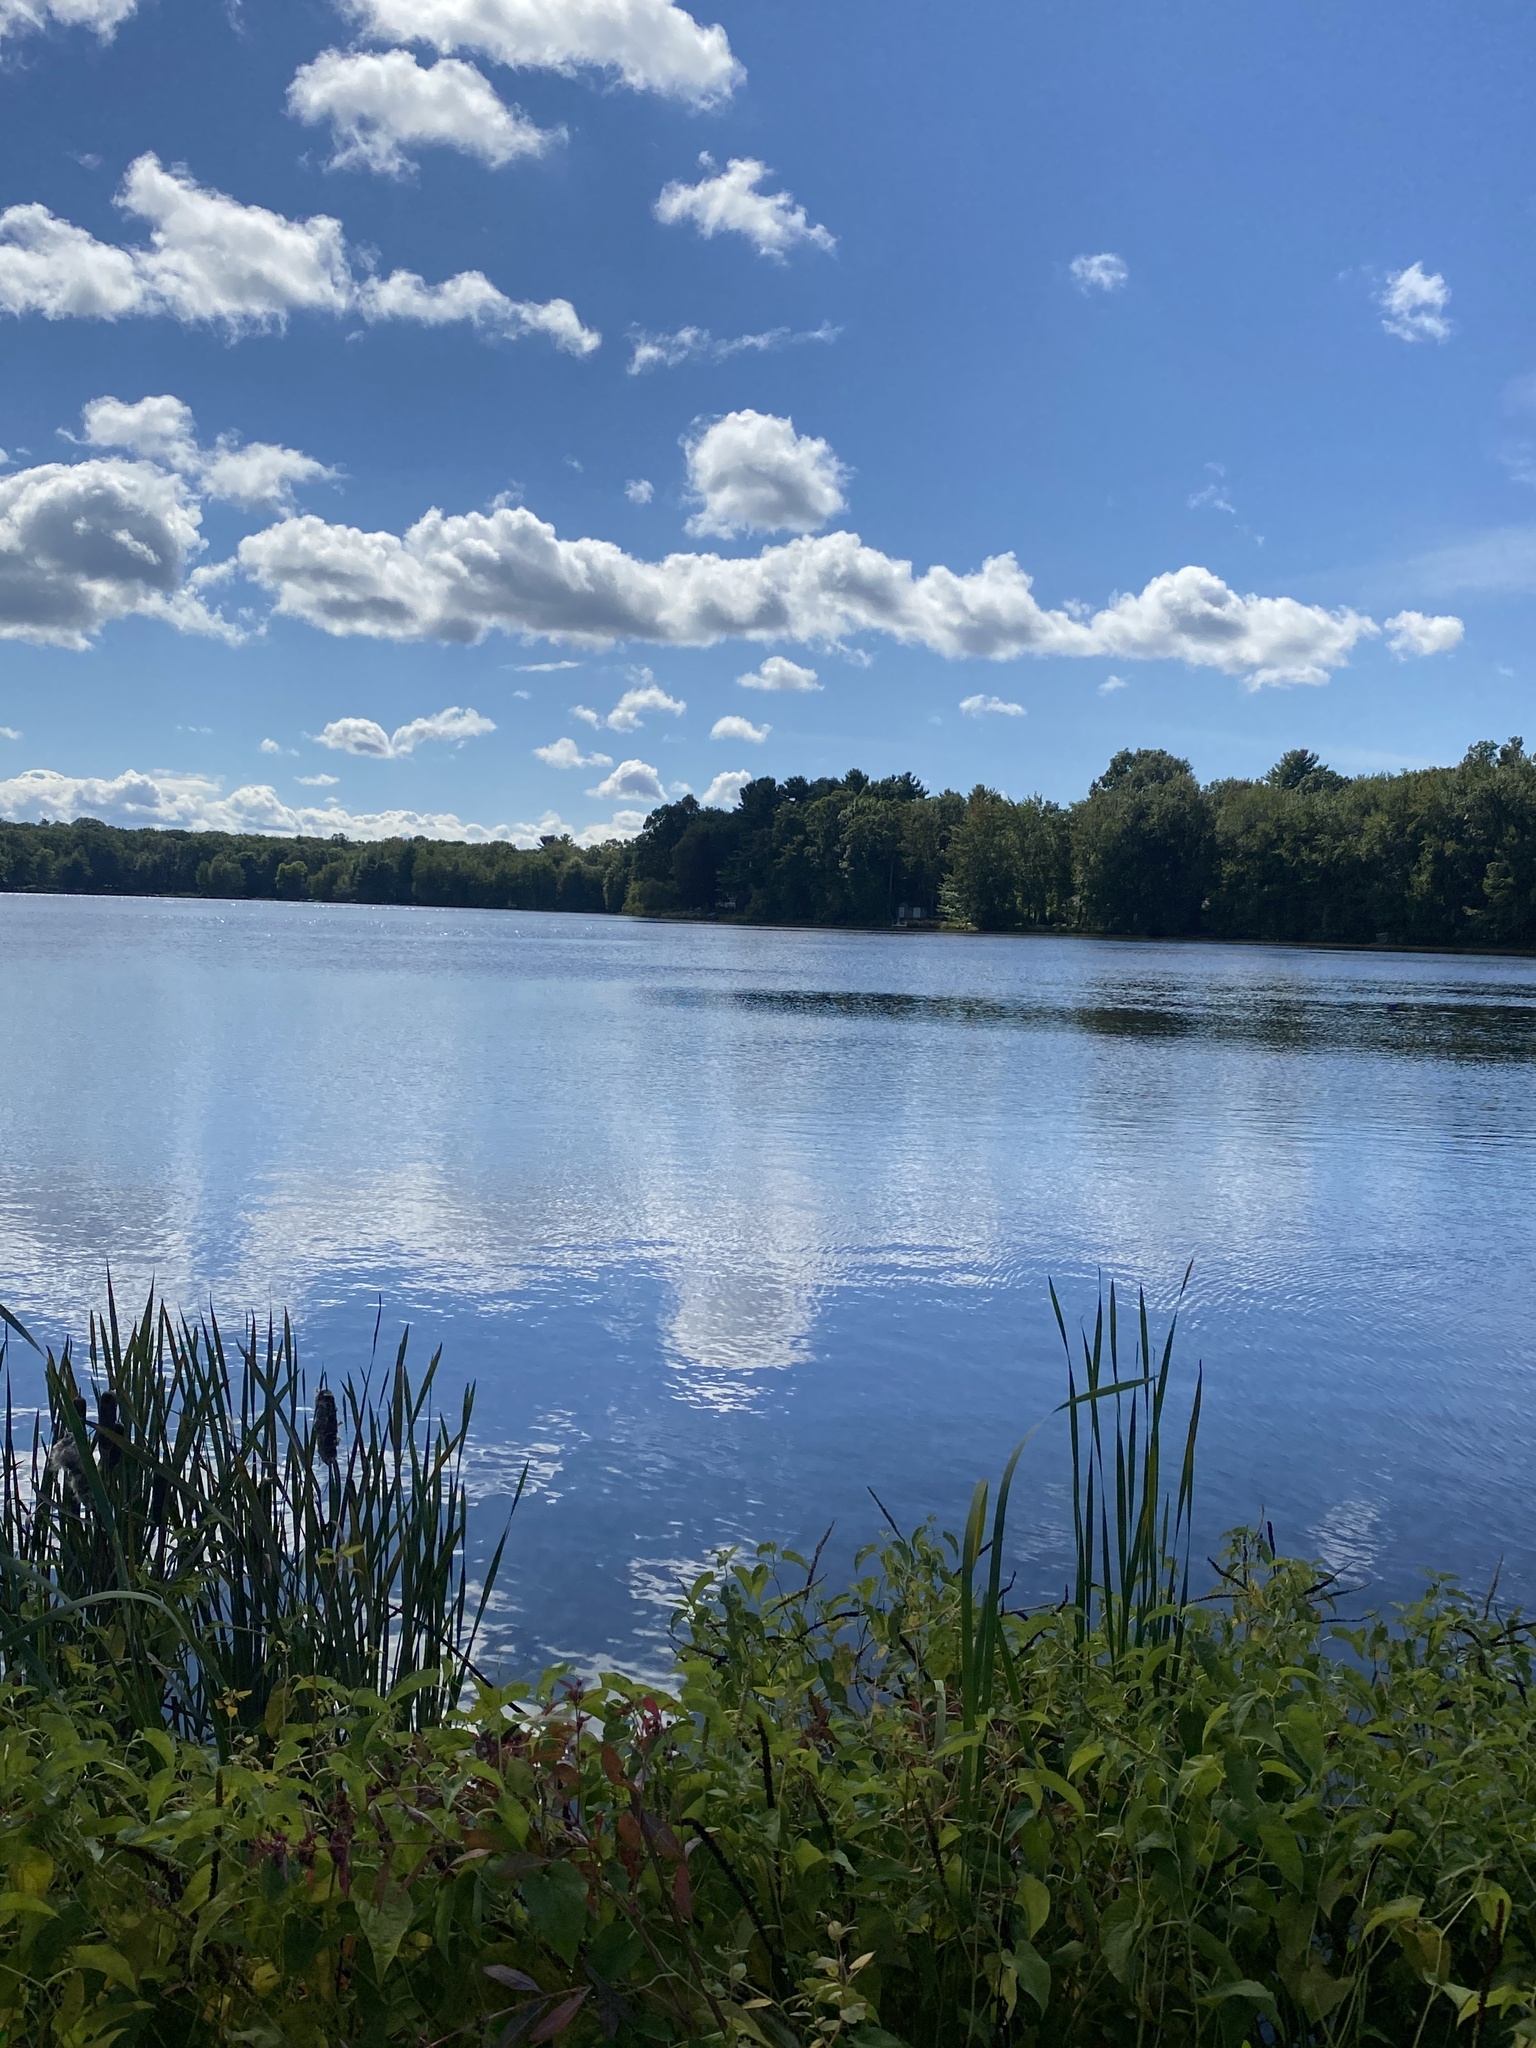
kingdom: Plantae
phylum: Tracheophyta
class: Magnoliopsida
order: Piperales
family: Saururaceae
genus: Saururus
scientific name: Saururus cernuus
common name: Lizard's-tail
